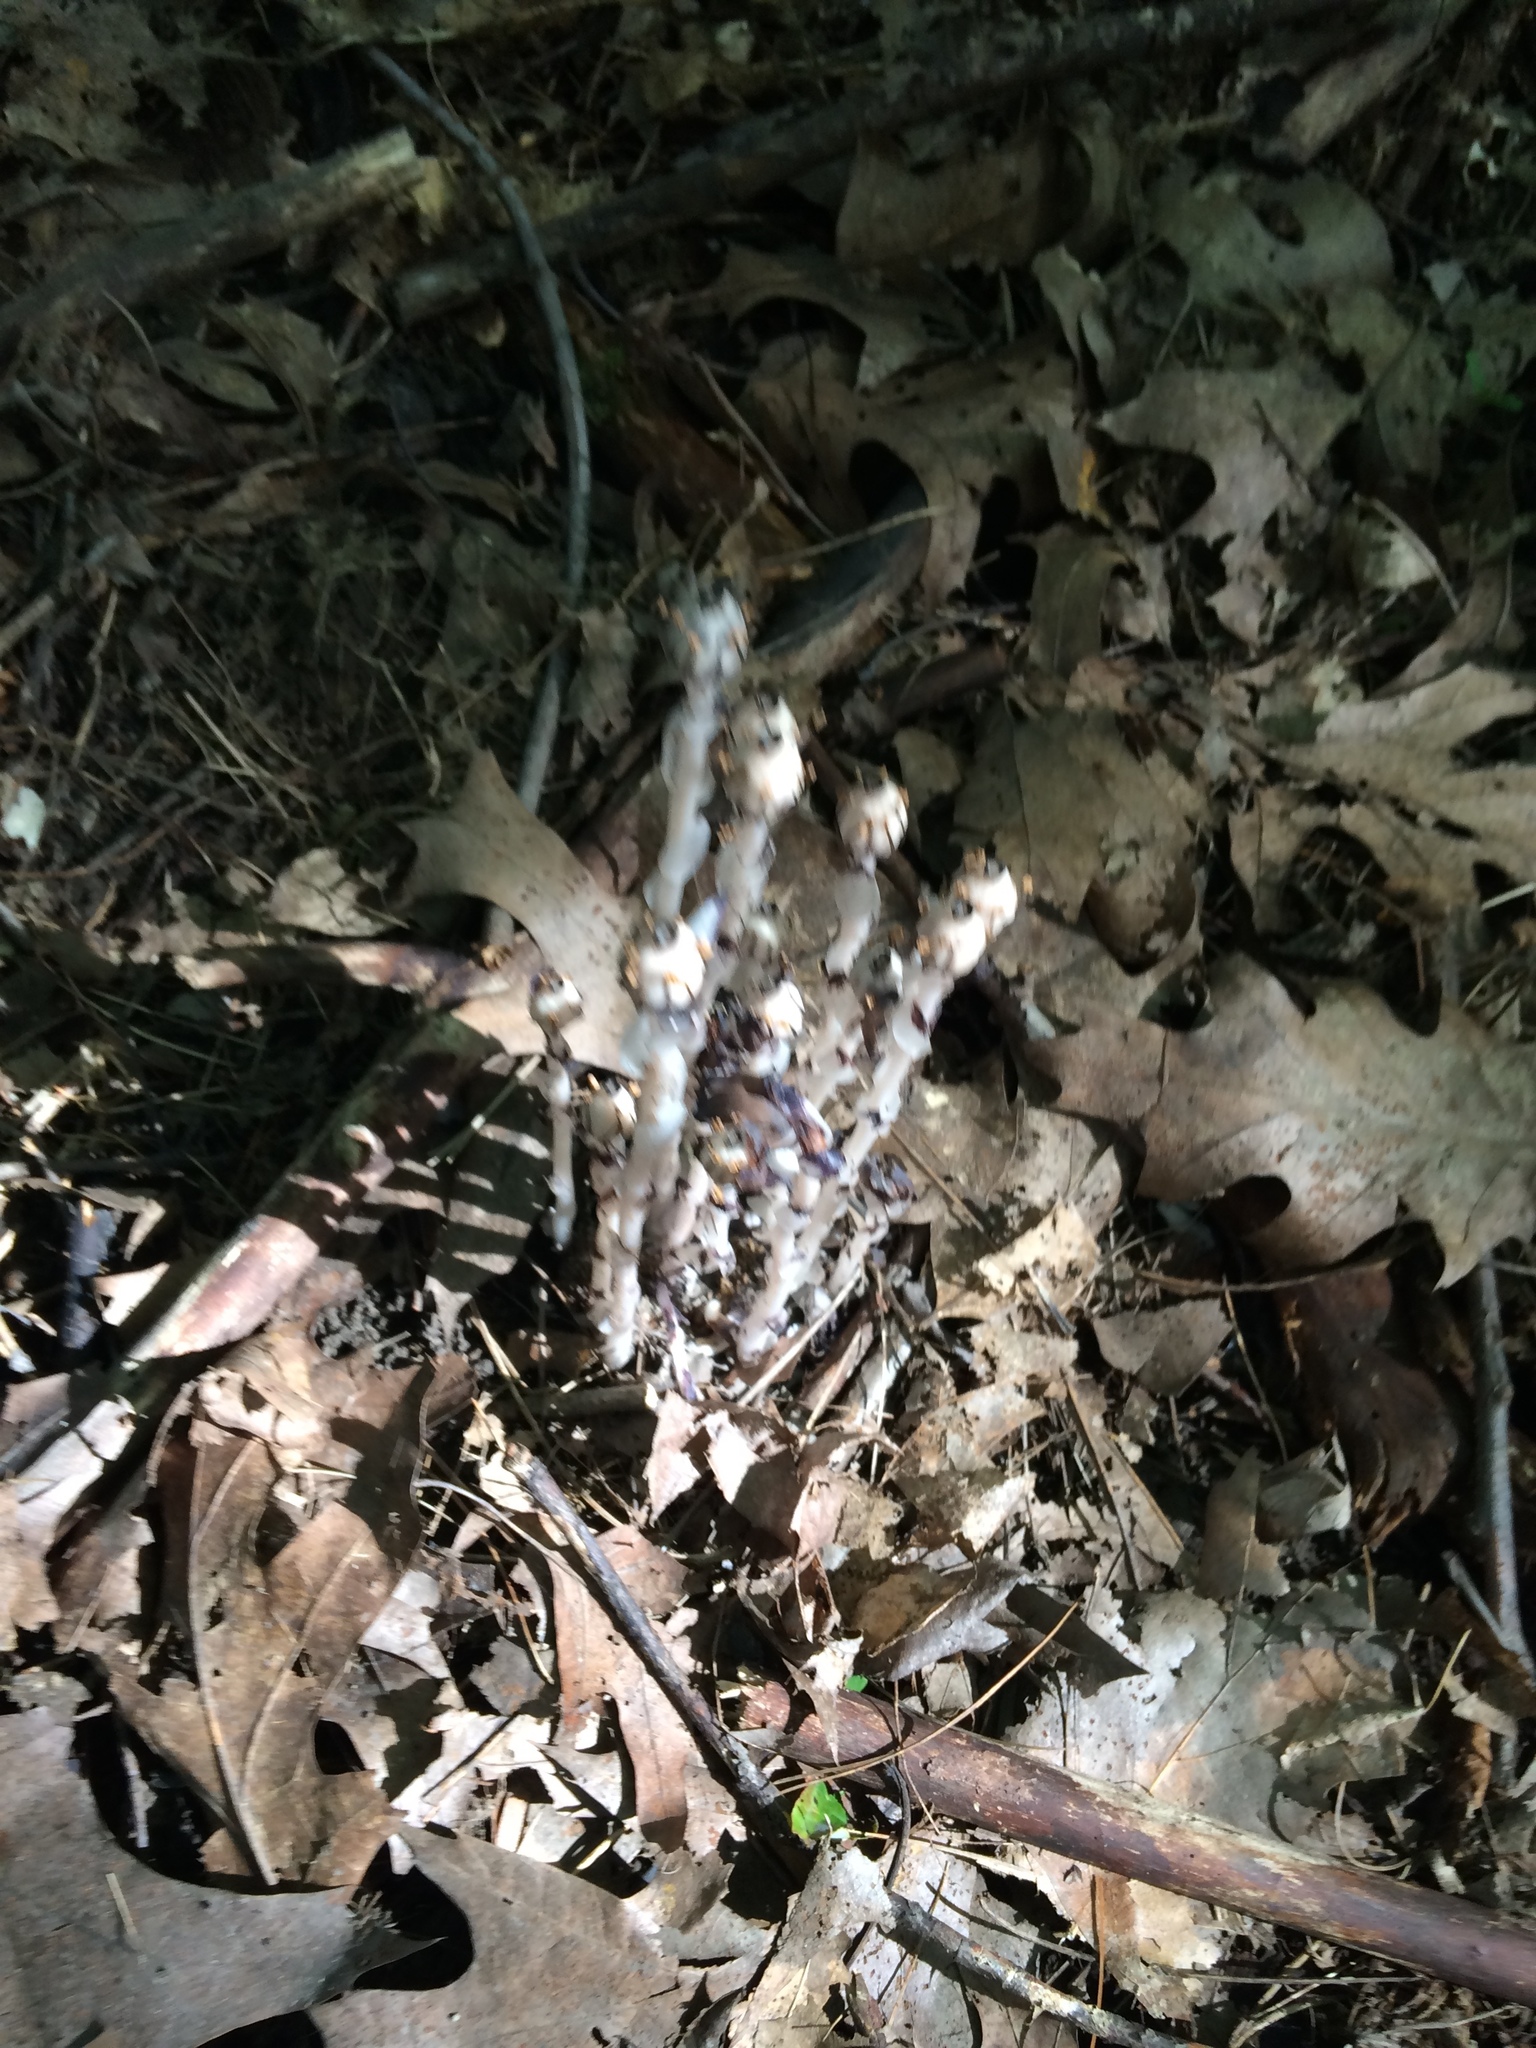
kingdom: Plantae
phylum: Tracheophyta
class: Magnoliopsida
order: Ericales
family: Ericaceae
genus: Monotropa
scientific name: Monotropa uniflora
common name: Convulsion root
